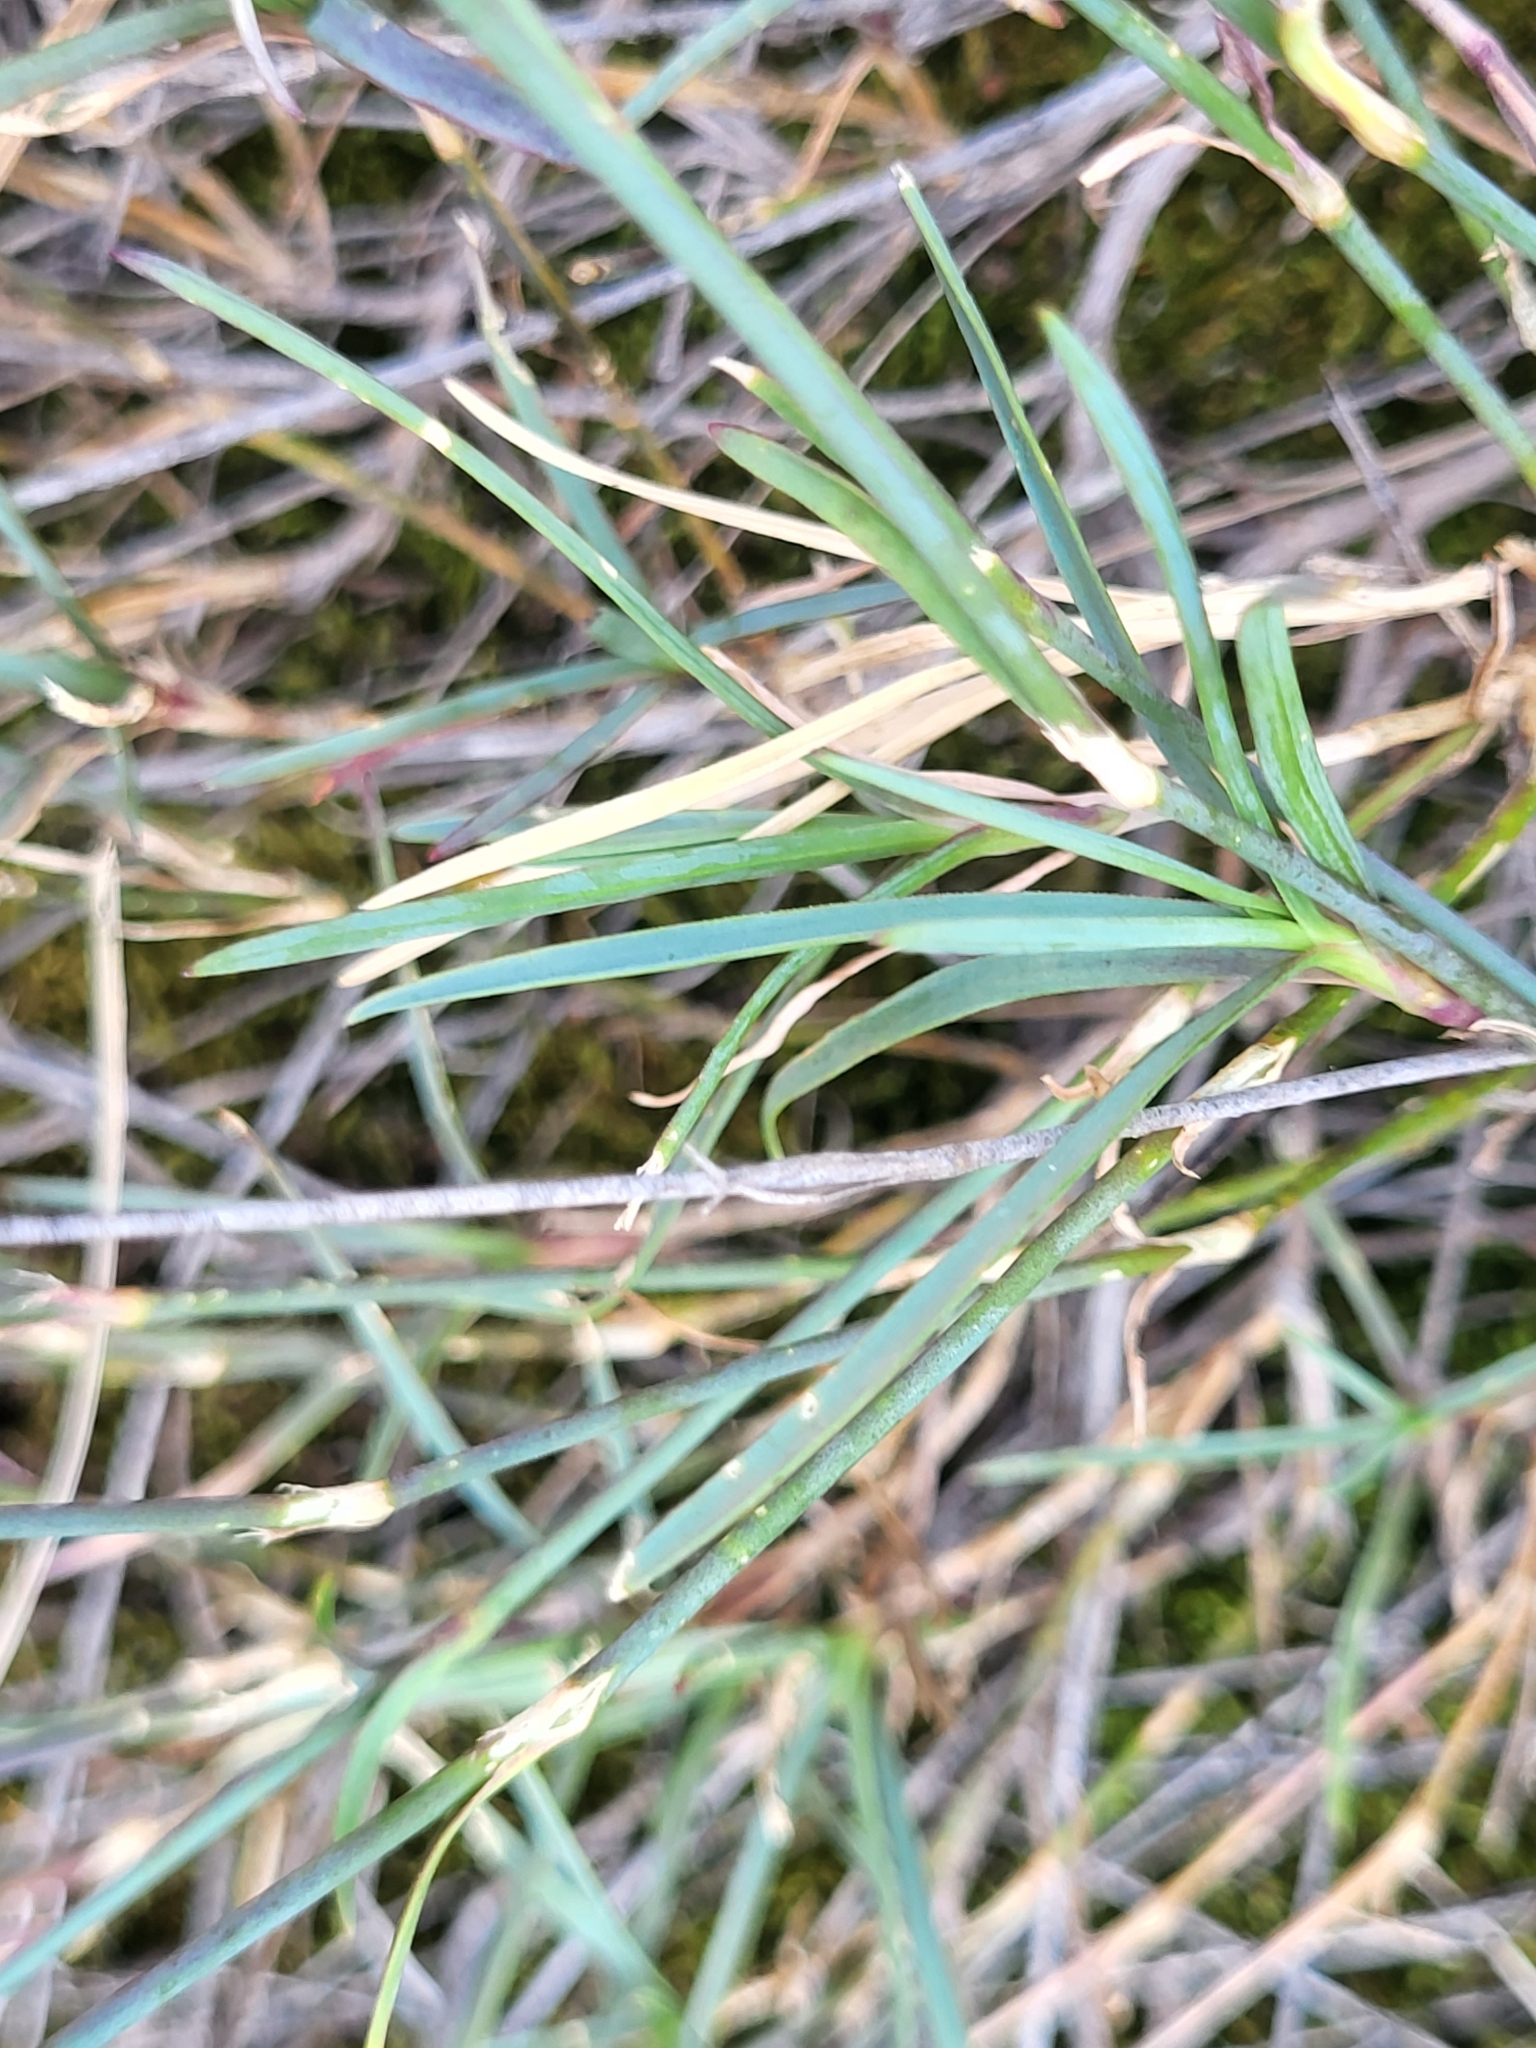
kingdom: Plantae
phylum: Tracheophyta
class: Magnoliopsida
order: Caryophyllales
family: Caryophyllaceae
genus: Dianthus
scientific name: Dianthus orientalis
